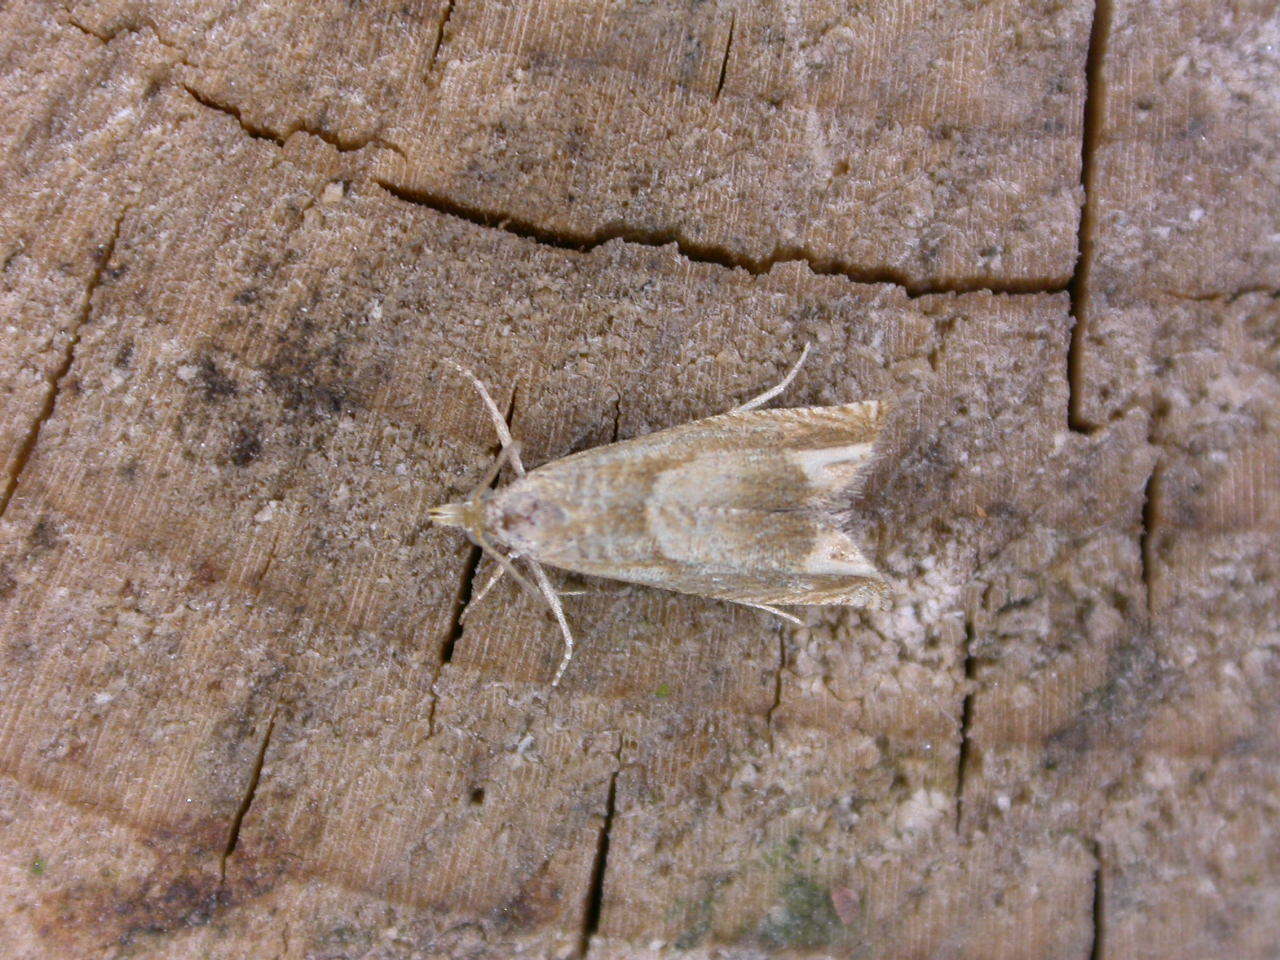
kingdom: Animalia
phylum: Arthropoda
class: Insecta
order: Lepidoptera
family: Tortricidae
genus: Eucosma
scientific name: Eucosma conterminana
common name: Pale lettuce bell
